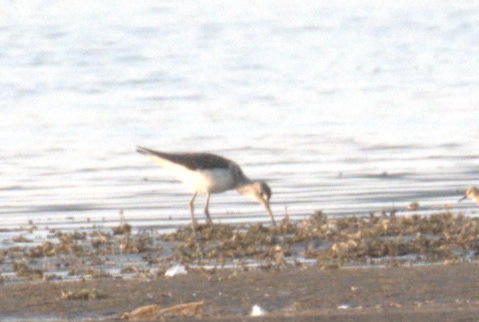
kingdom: Animalia
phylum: Chordata
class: Aves
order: Charadriiformes
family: Scolopacidae
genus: Tringa
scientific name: Tringa nebularia
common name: Common greenshank
